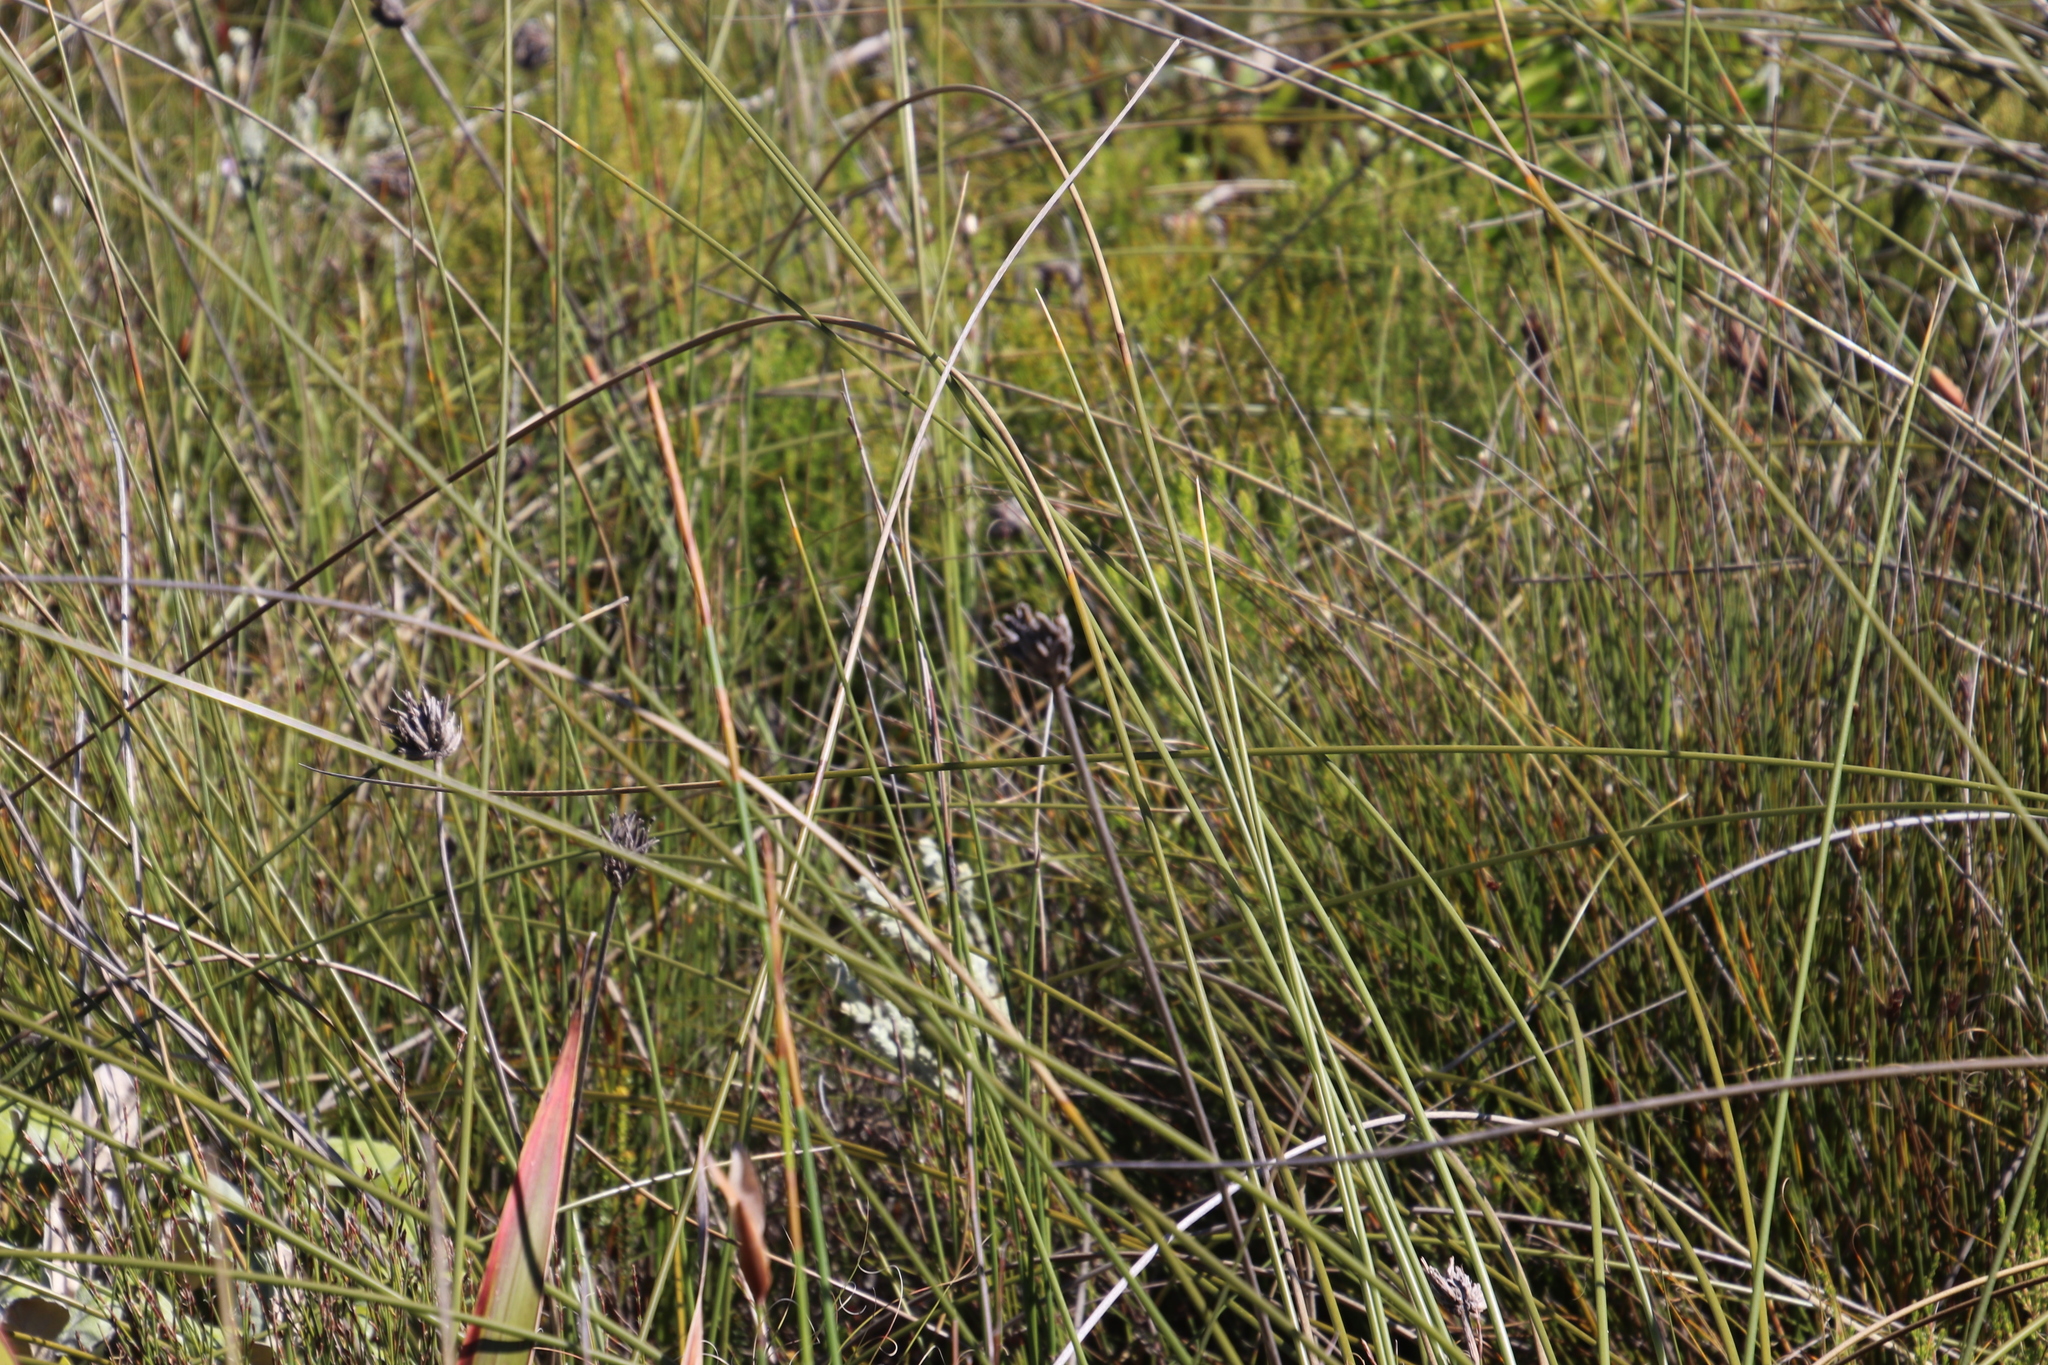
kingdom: Plantae
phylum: Tracheophyta
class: Liliopsida
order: Asparagales
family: Iridaceae
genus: Bobartia
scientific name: Bobartia indica
